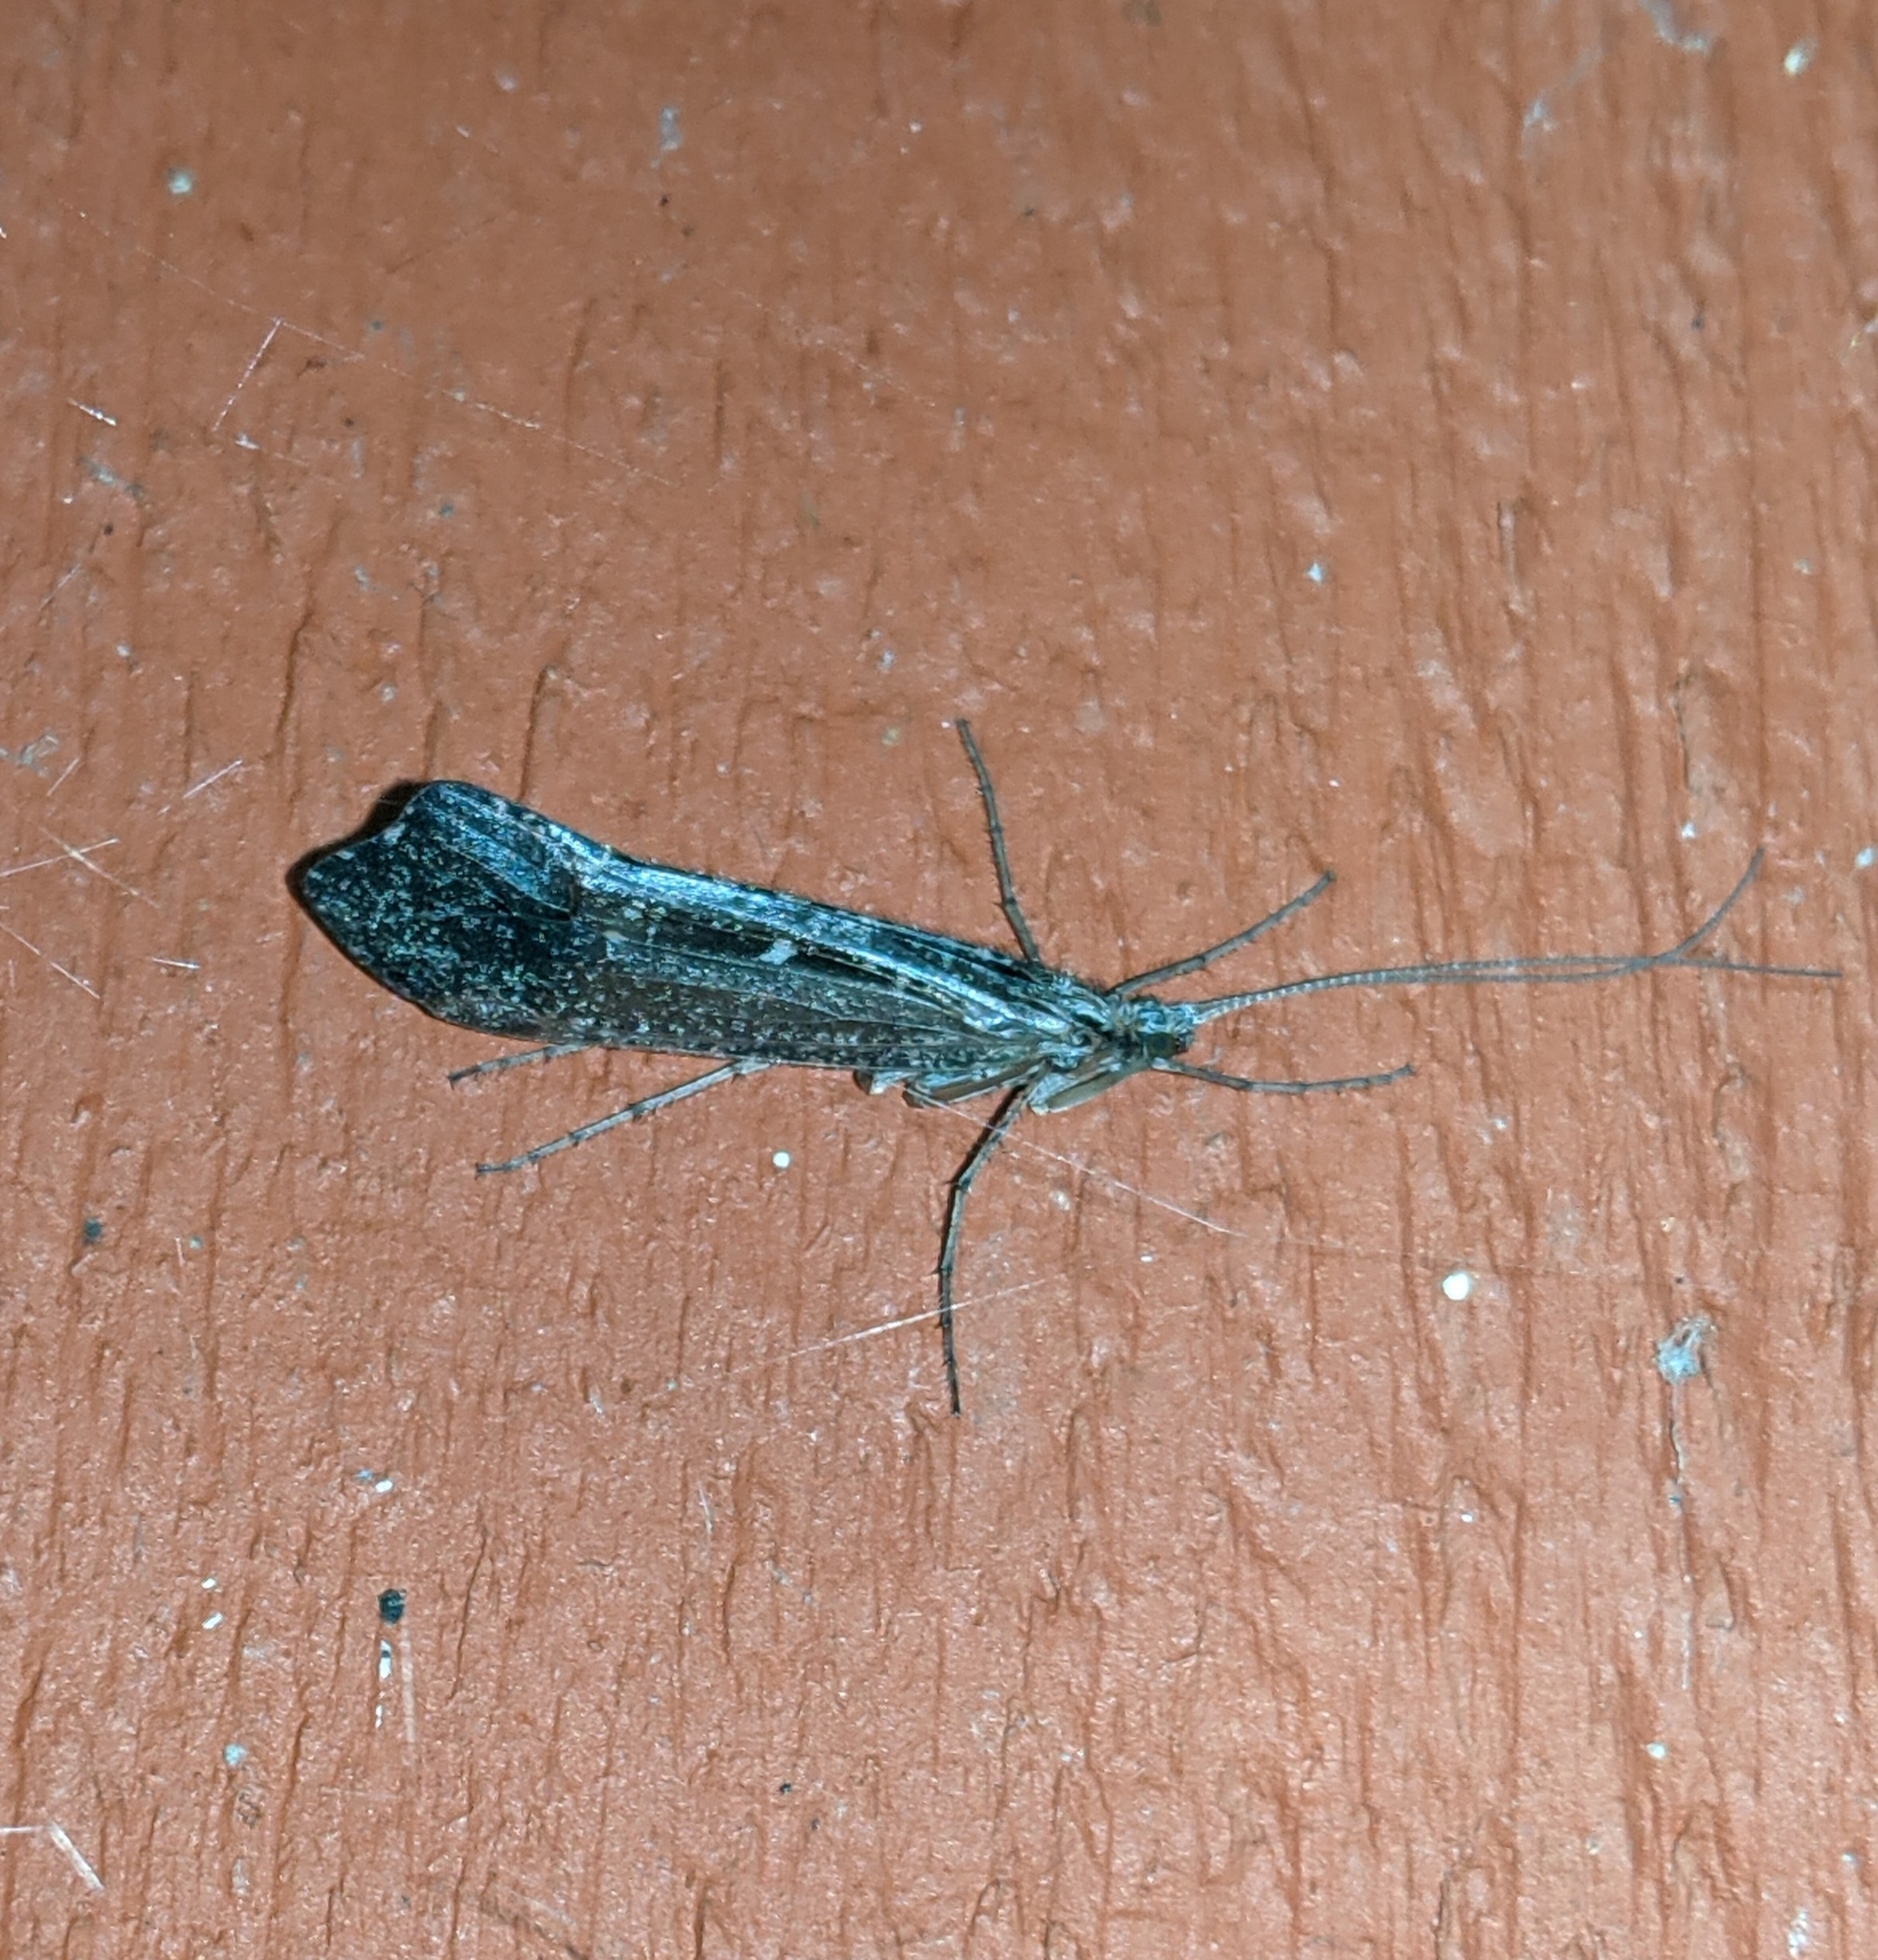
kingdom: Animalia
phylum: Arthropoda
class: Insecta
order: Trichoptera
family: Limnephilidae
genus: Glyphopsyche
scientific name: Glyphopsyche irrorata
